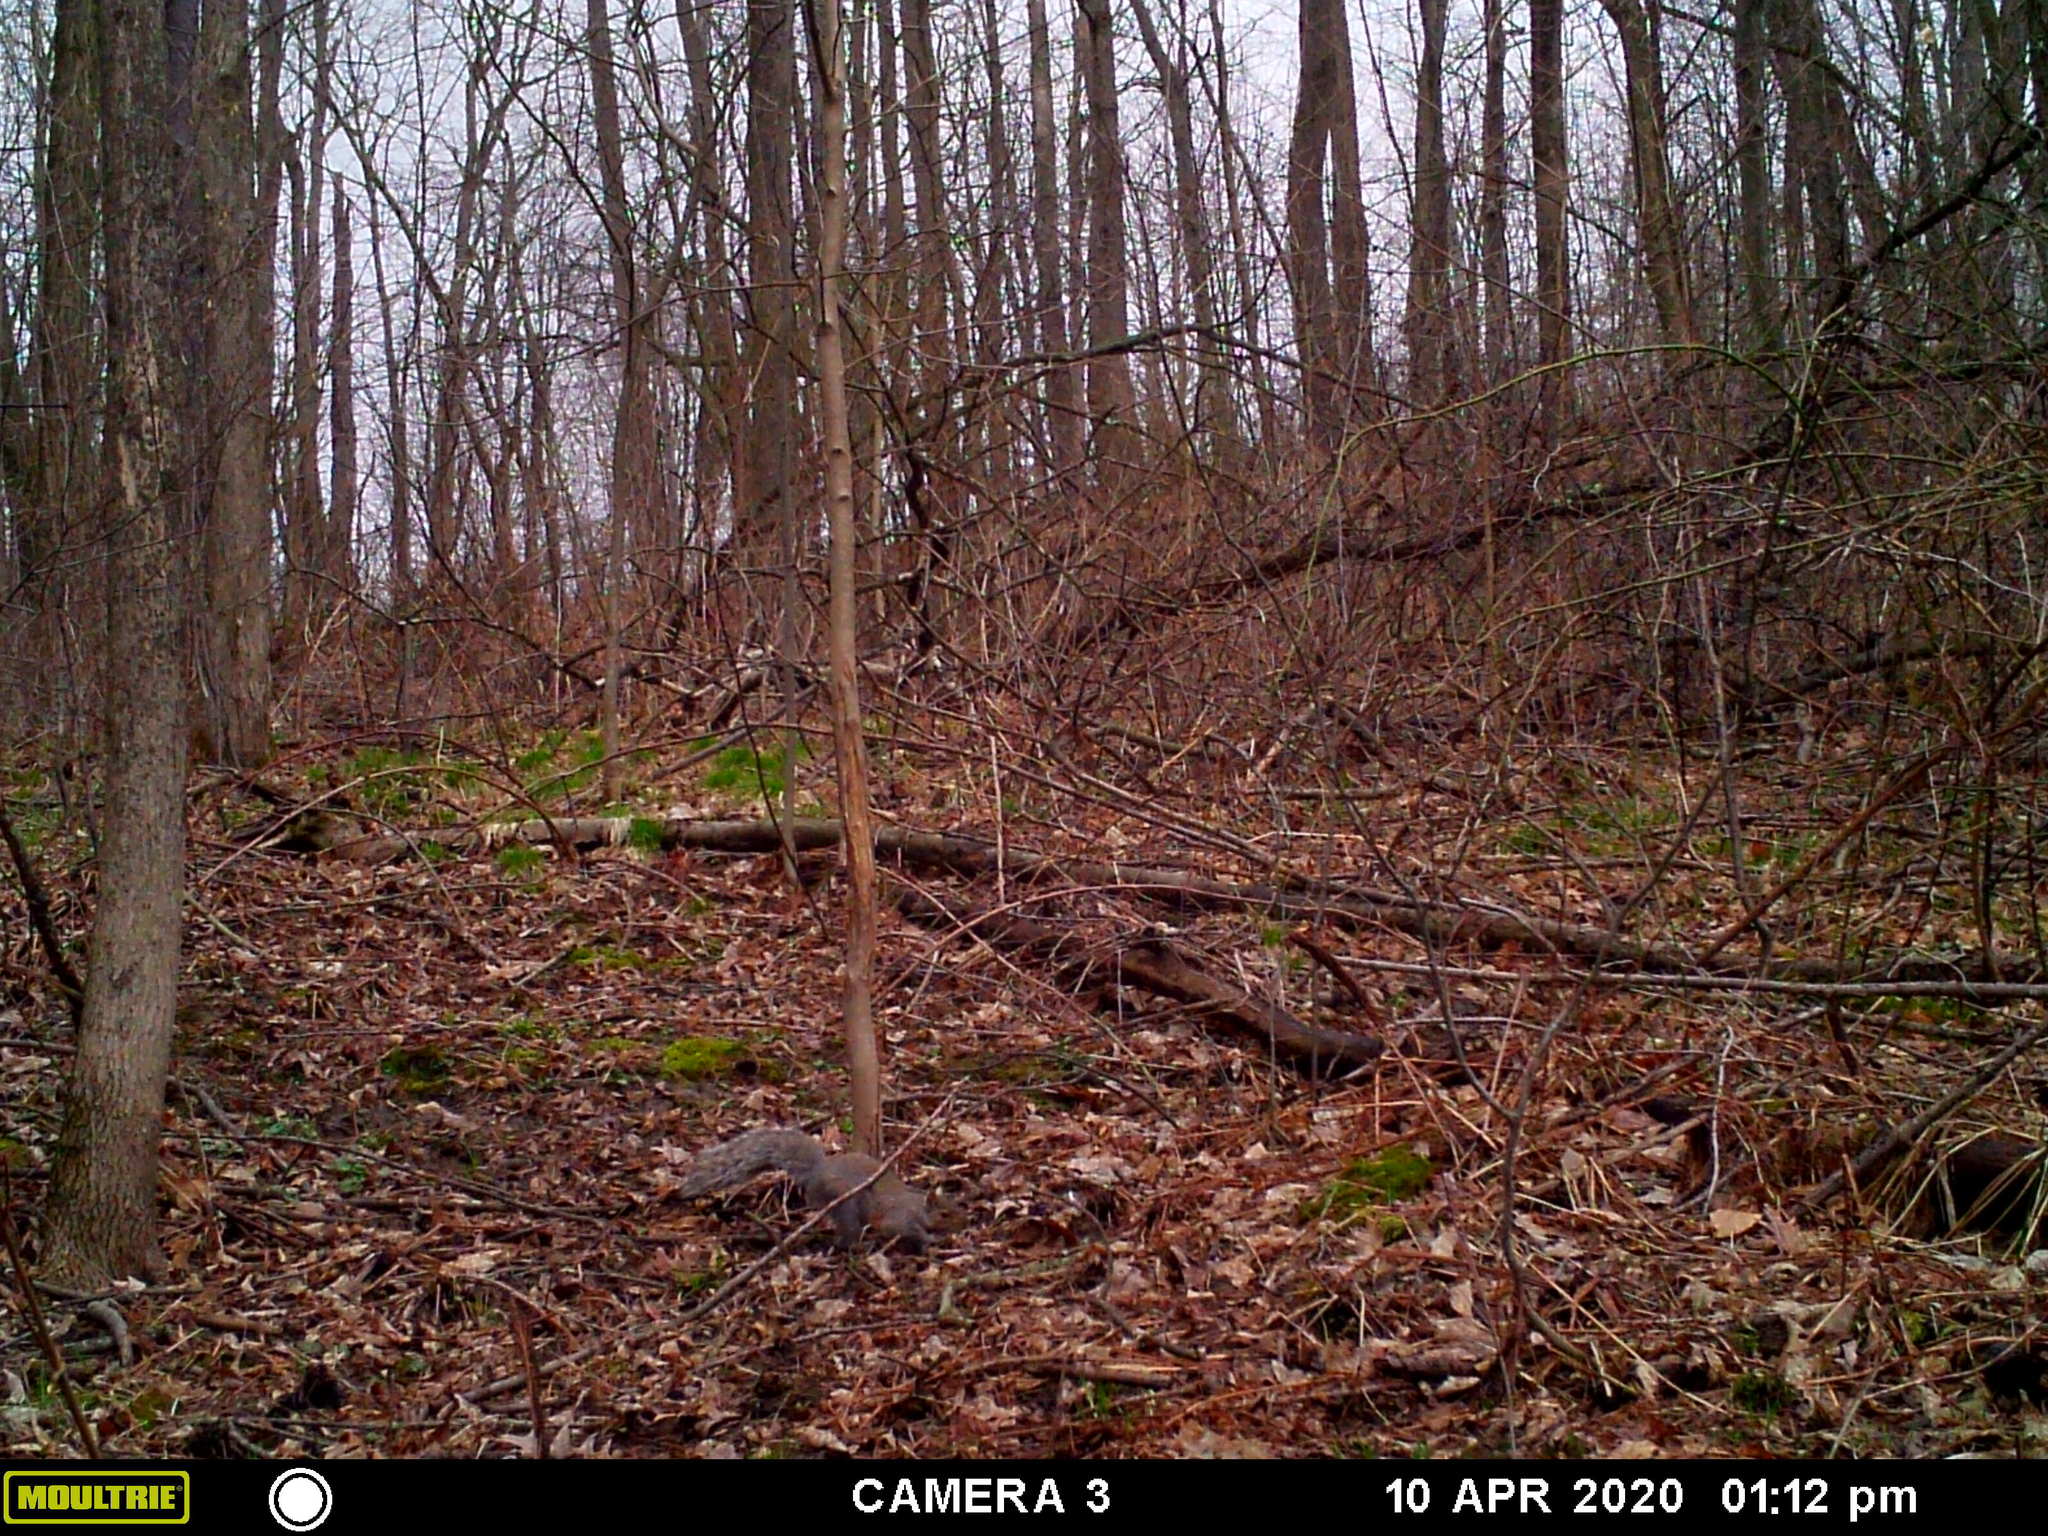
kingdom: Animalia
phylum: Chordata
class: Mammalia
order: Rodentia
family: Sciuridae
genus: Sciurus
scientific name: Sciurus carolinensis
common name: Eastern gray squirrel
